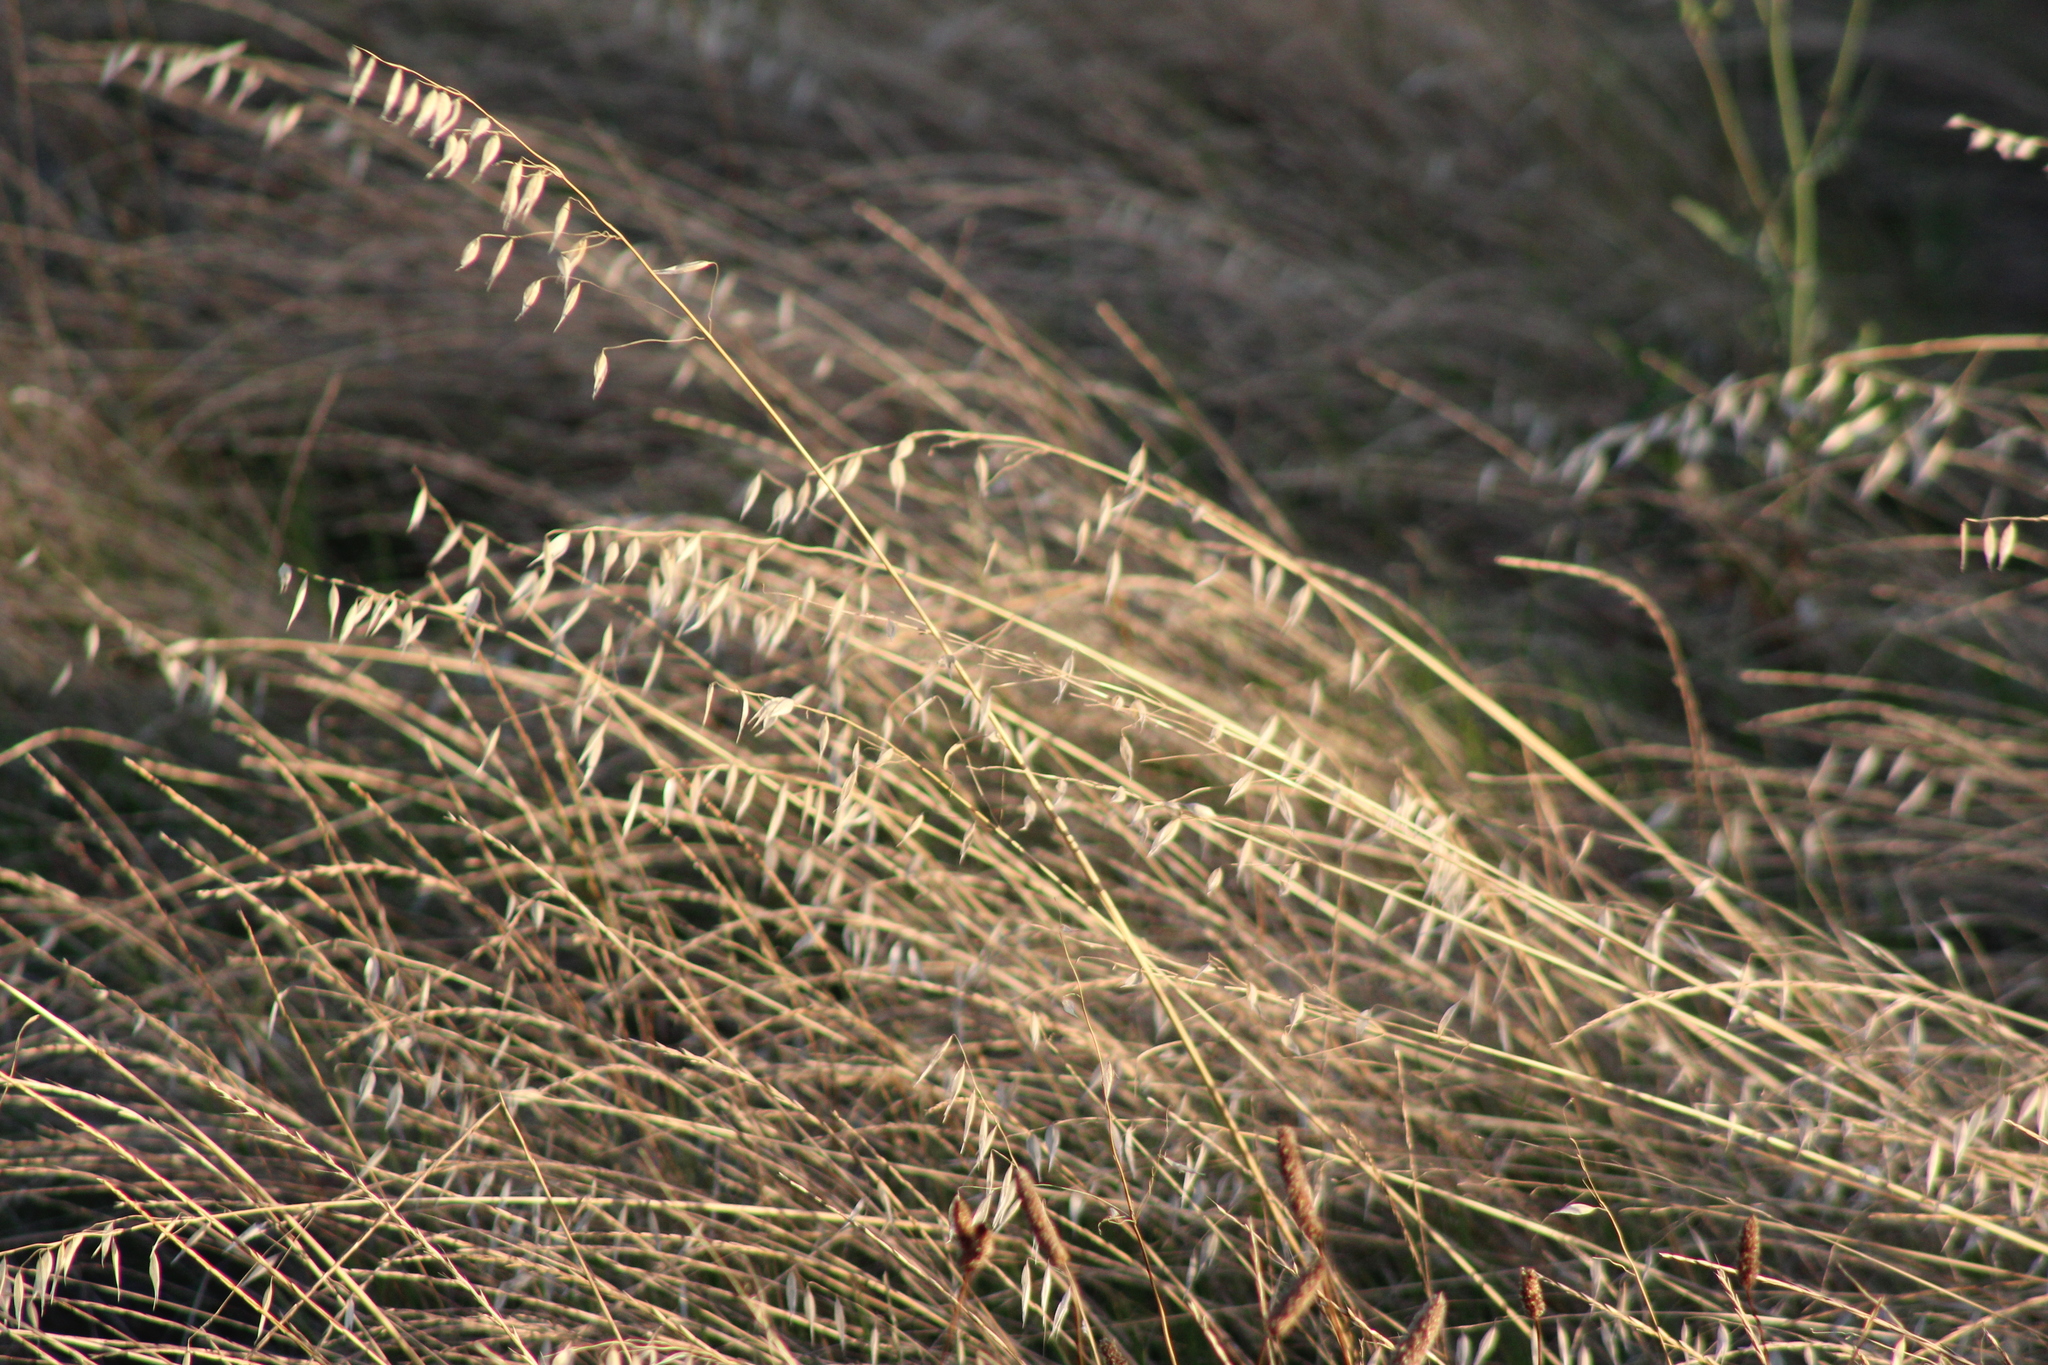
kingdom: Plantae
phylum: Tracheophyta
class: Liliopsida
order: Poales
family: Poaceae
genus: Avena
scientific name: Avena fatua
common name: Wild oat
